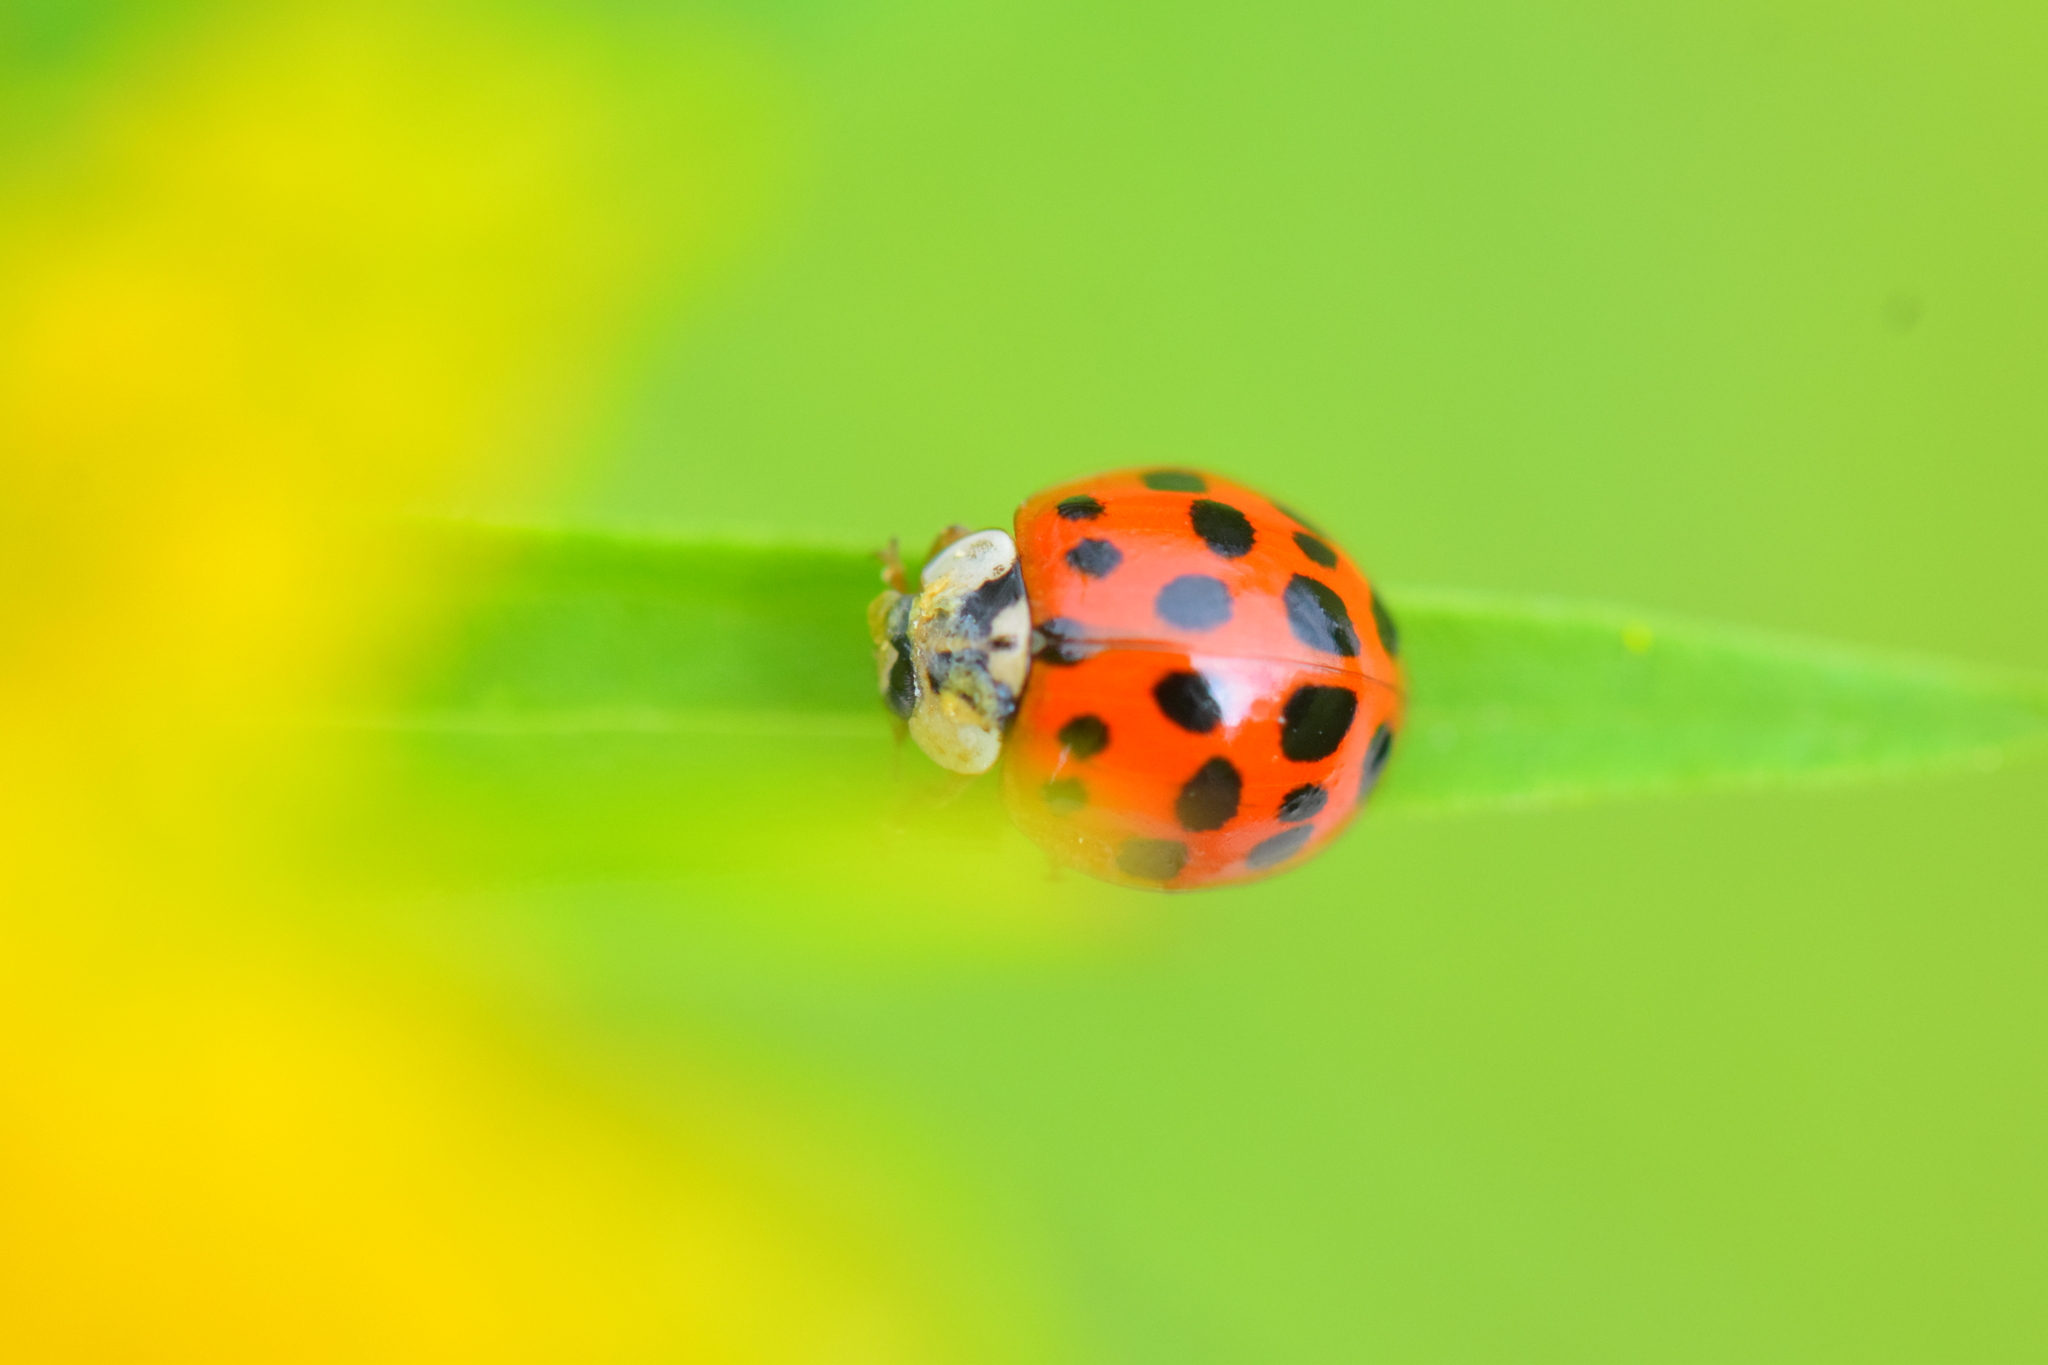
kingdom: Animalia
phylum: Arthropoda
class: Insecta
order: Coleoptera
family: Coccinellidae
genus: Harmonia
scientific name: Harmonia axyridis
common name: Harlequin ladybird
